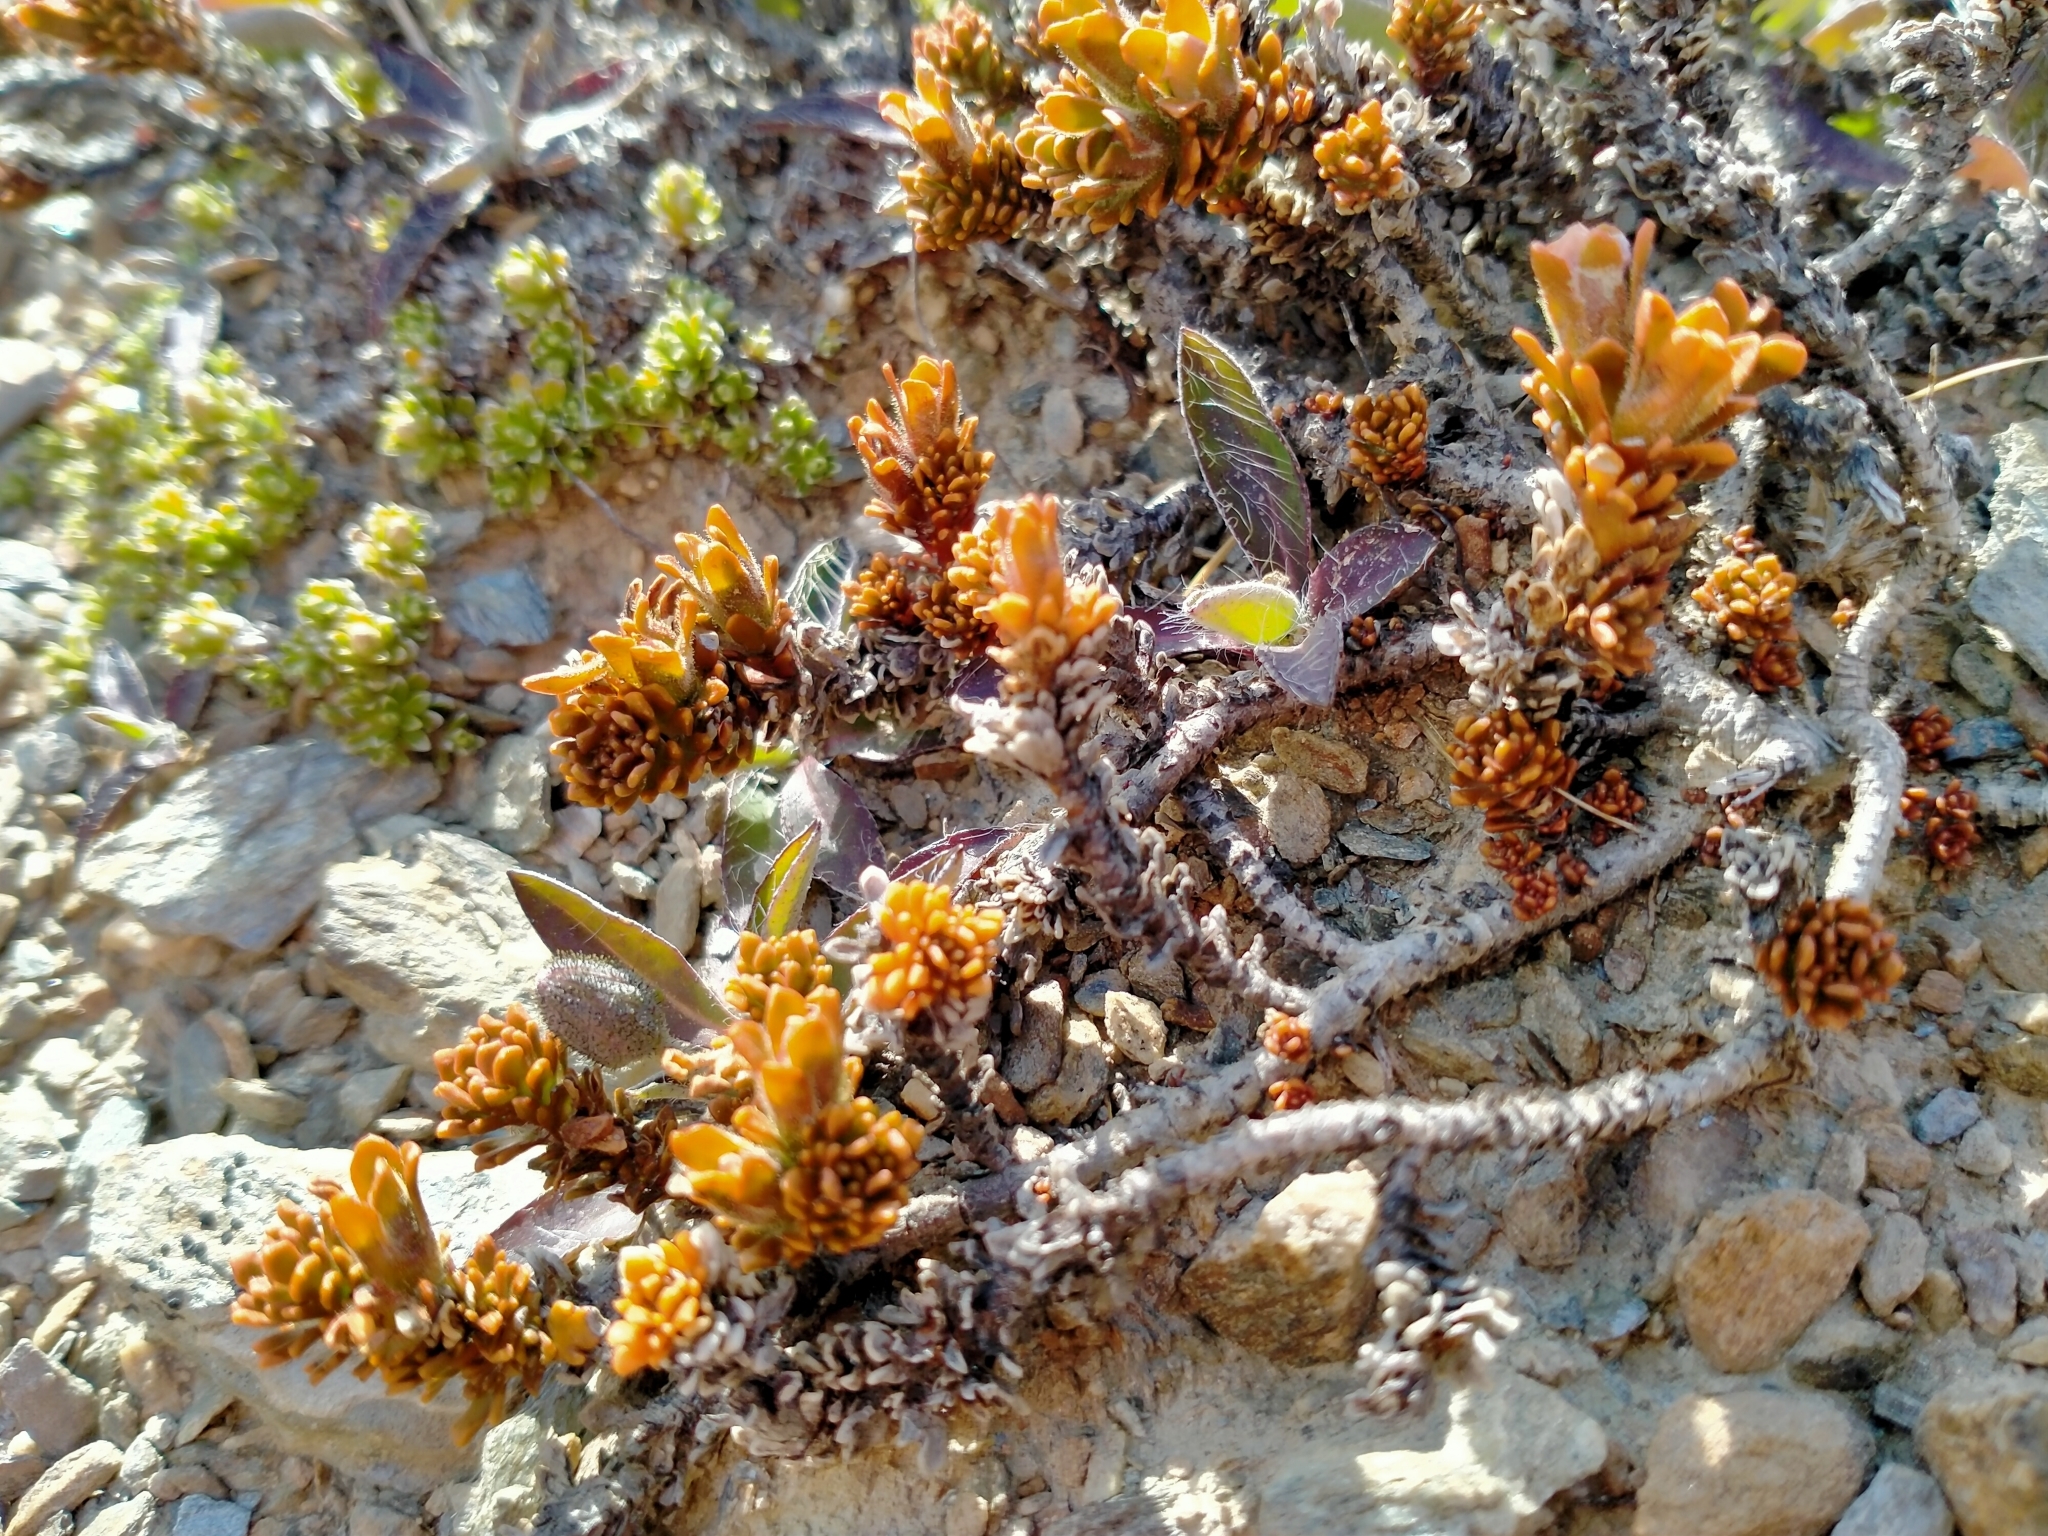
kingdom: Plantae
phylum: Tracheophyta
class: Magnoliopsida
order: Lamiales
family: Plantaginaceae
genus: Veronica
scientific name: Veronica densifolia
